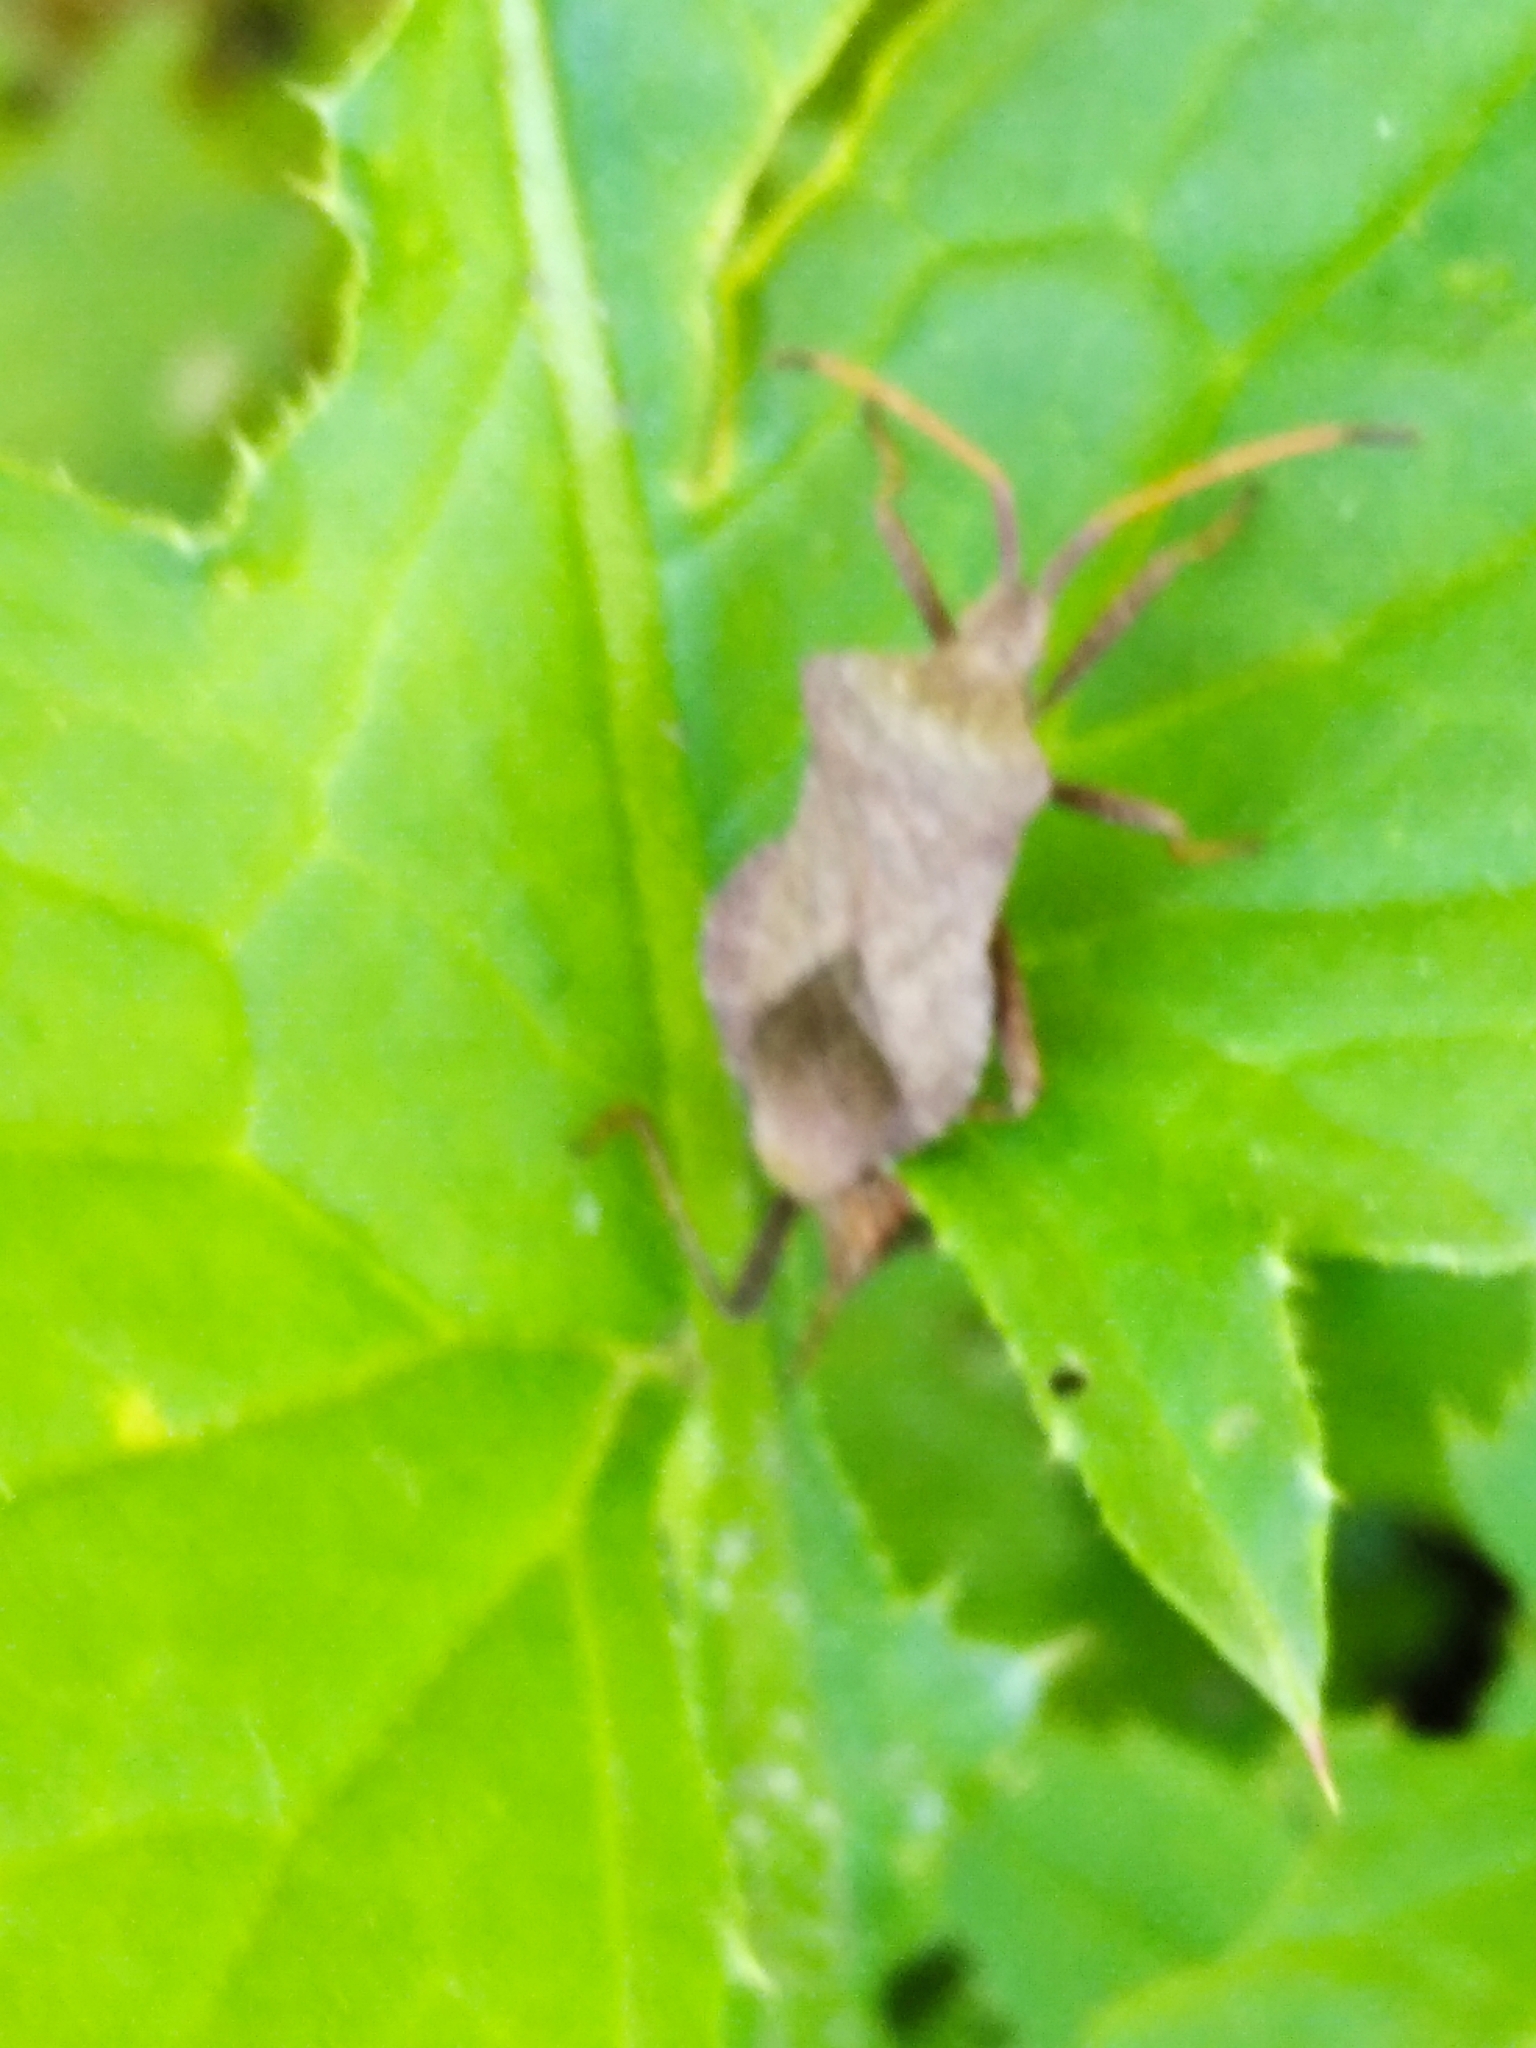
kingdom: Animalia
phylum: Arthropoda
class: Insecta
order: Hemiptera
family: Coreidae
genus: Coreus
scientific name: Coreus marginatus
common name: Dock bug
